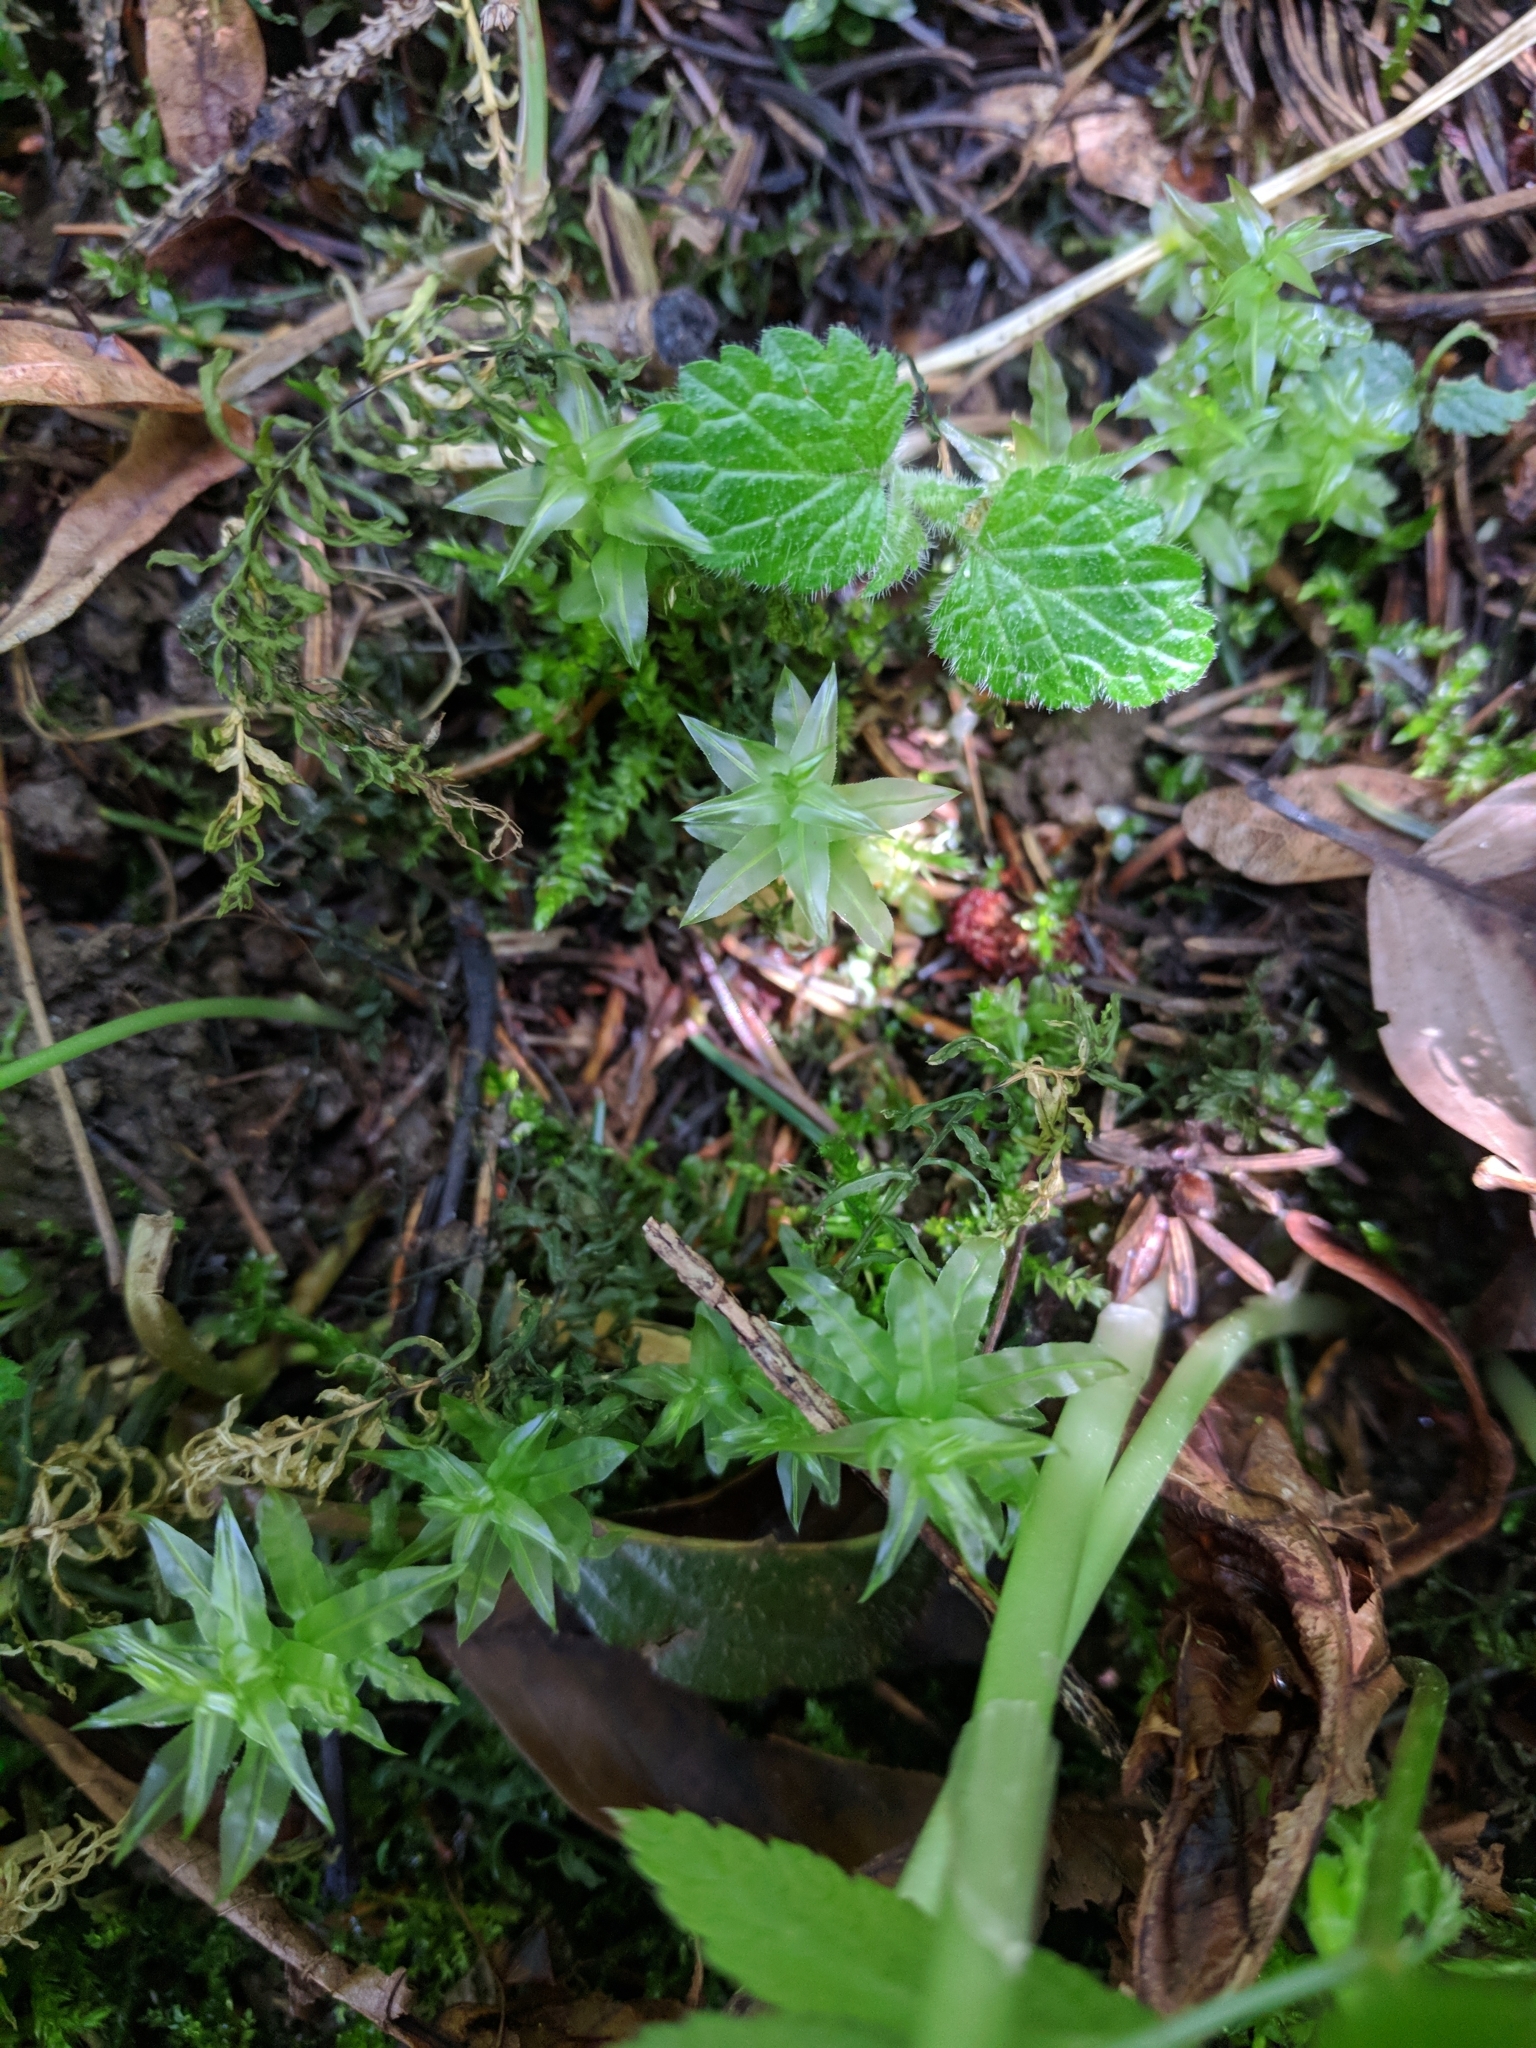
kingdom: Plantae
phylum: Bryophyta
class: Bryopsida
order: Bryales
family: Mniaceae
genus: Plagiomnium
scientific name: Plagiomnium undulatum
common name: Hart's-tongue thyme-moss
